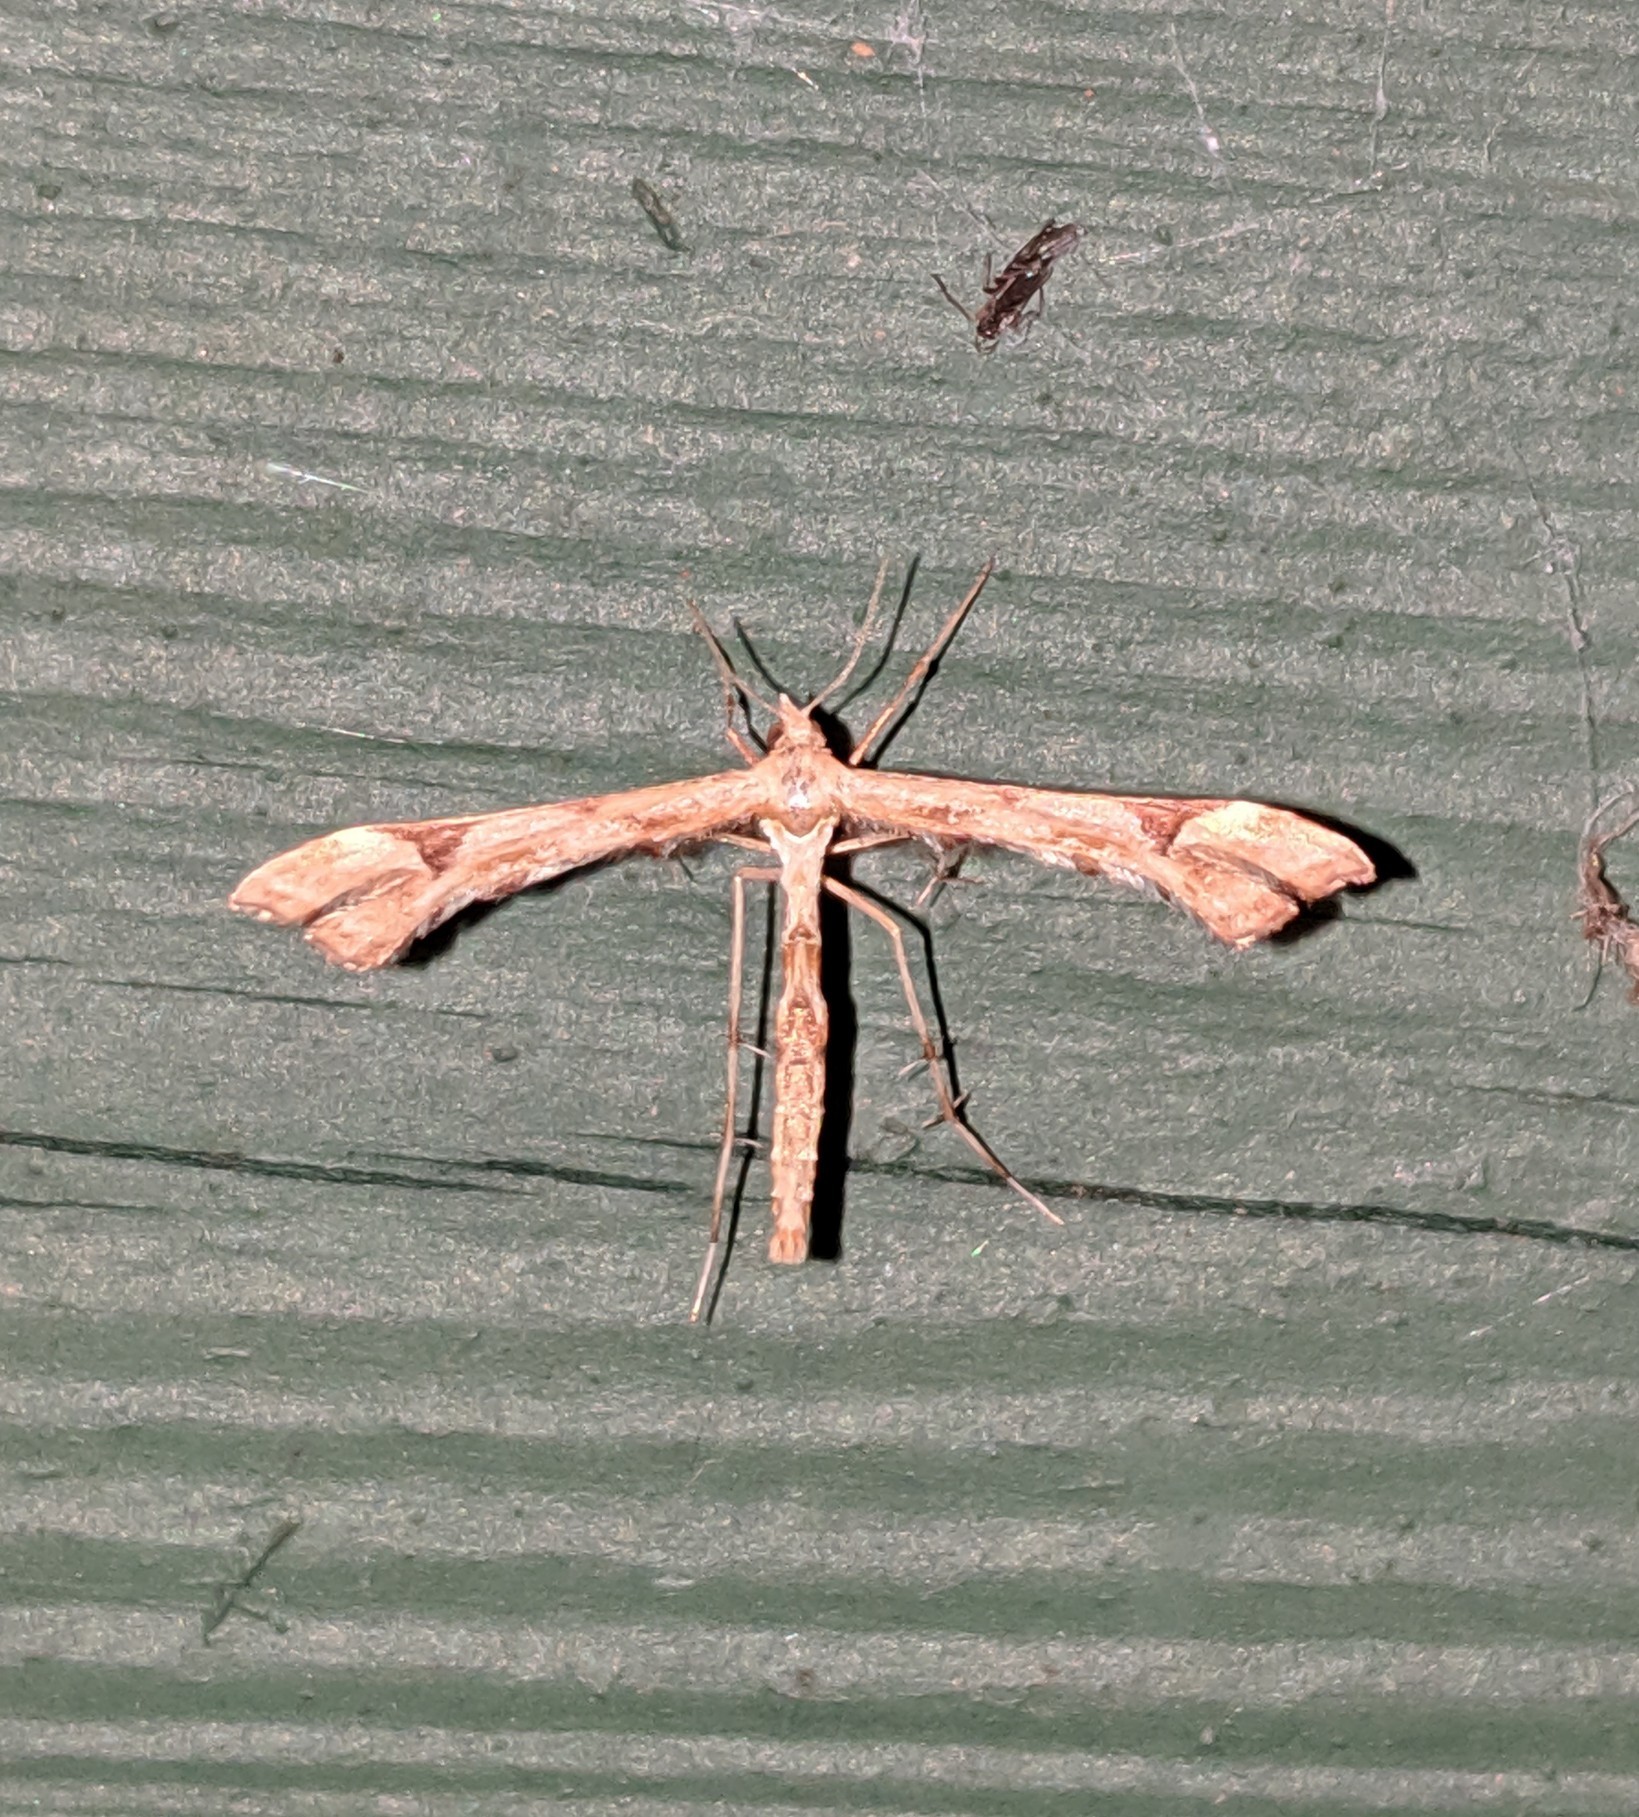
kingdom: Animalia
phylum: Arthropoda
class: Insecta
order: Lepidoptera
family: Pterophoridae
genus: Platyptilia
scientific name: Platyptilia carduidactylus
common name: Artichoke plume moth
